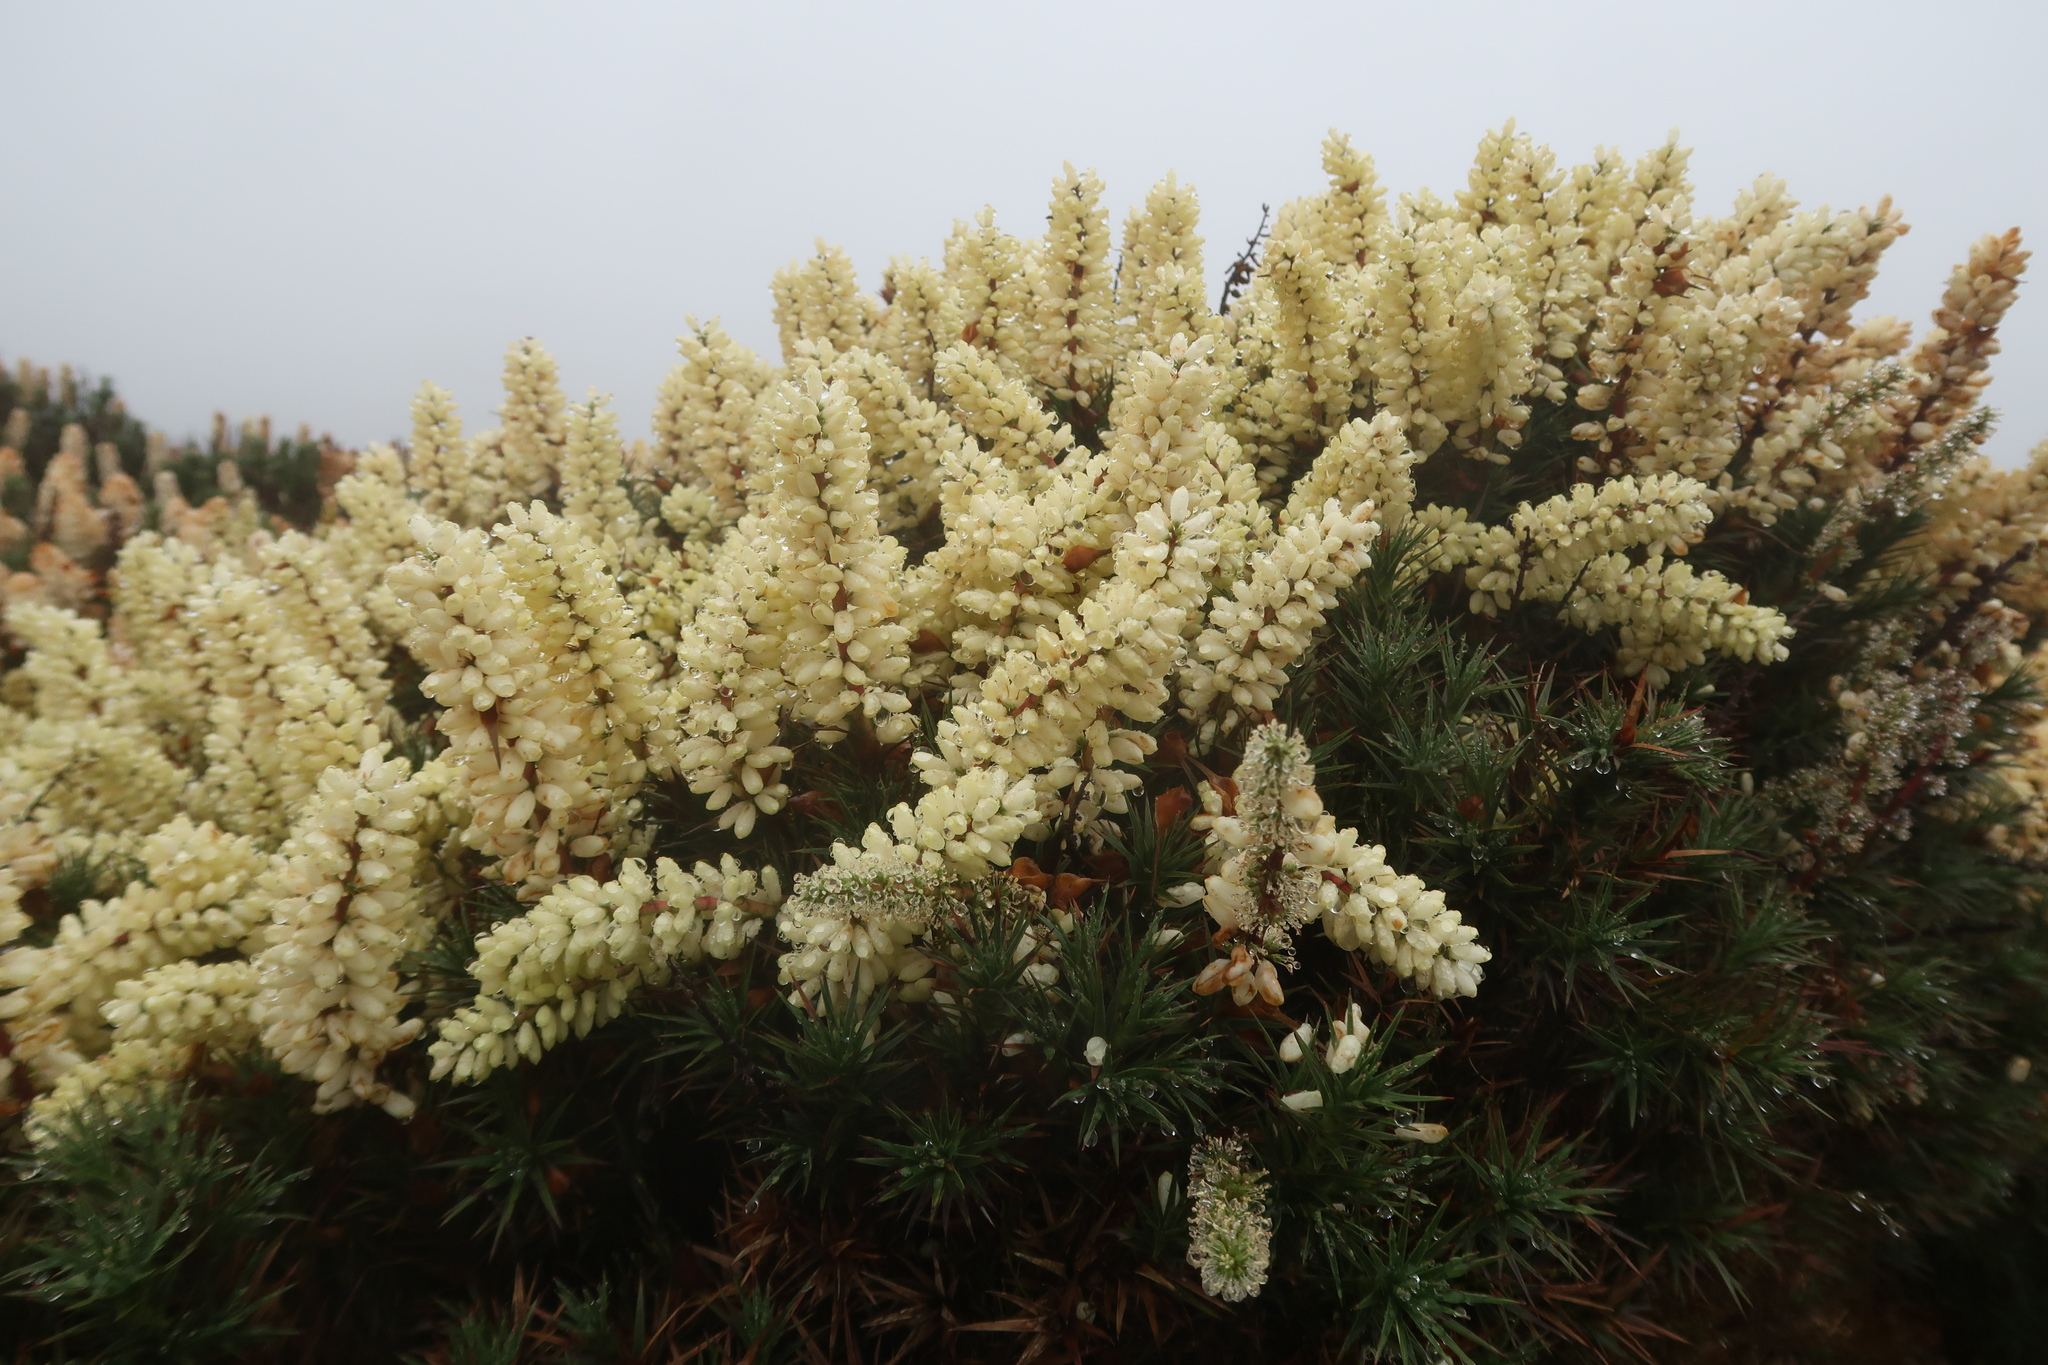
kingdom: Plantae
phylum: Tracheophyta
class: Magnoliopsida
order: Ericales
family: Ericaceae
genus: Dracophyllum
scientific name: Dracophyllum persistentifolium
